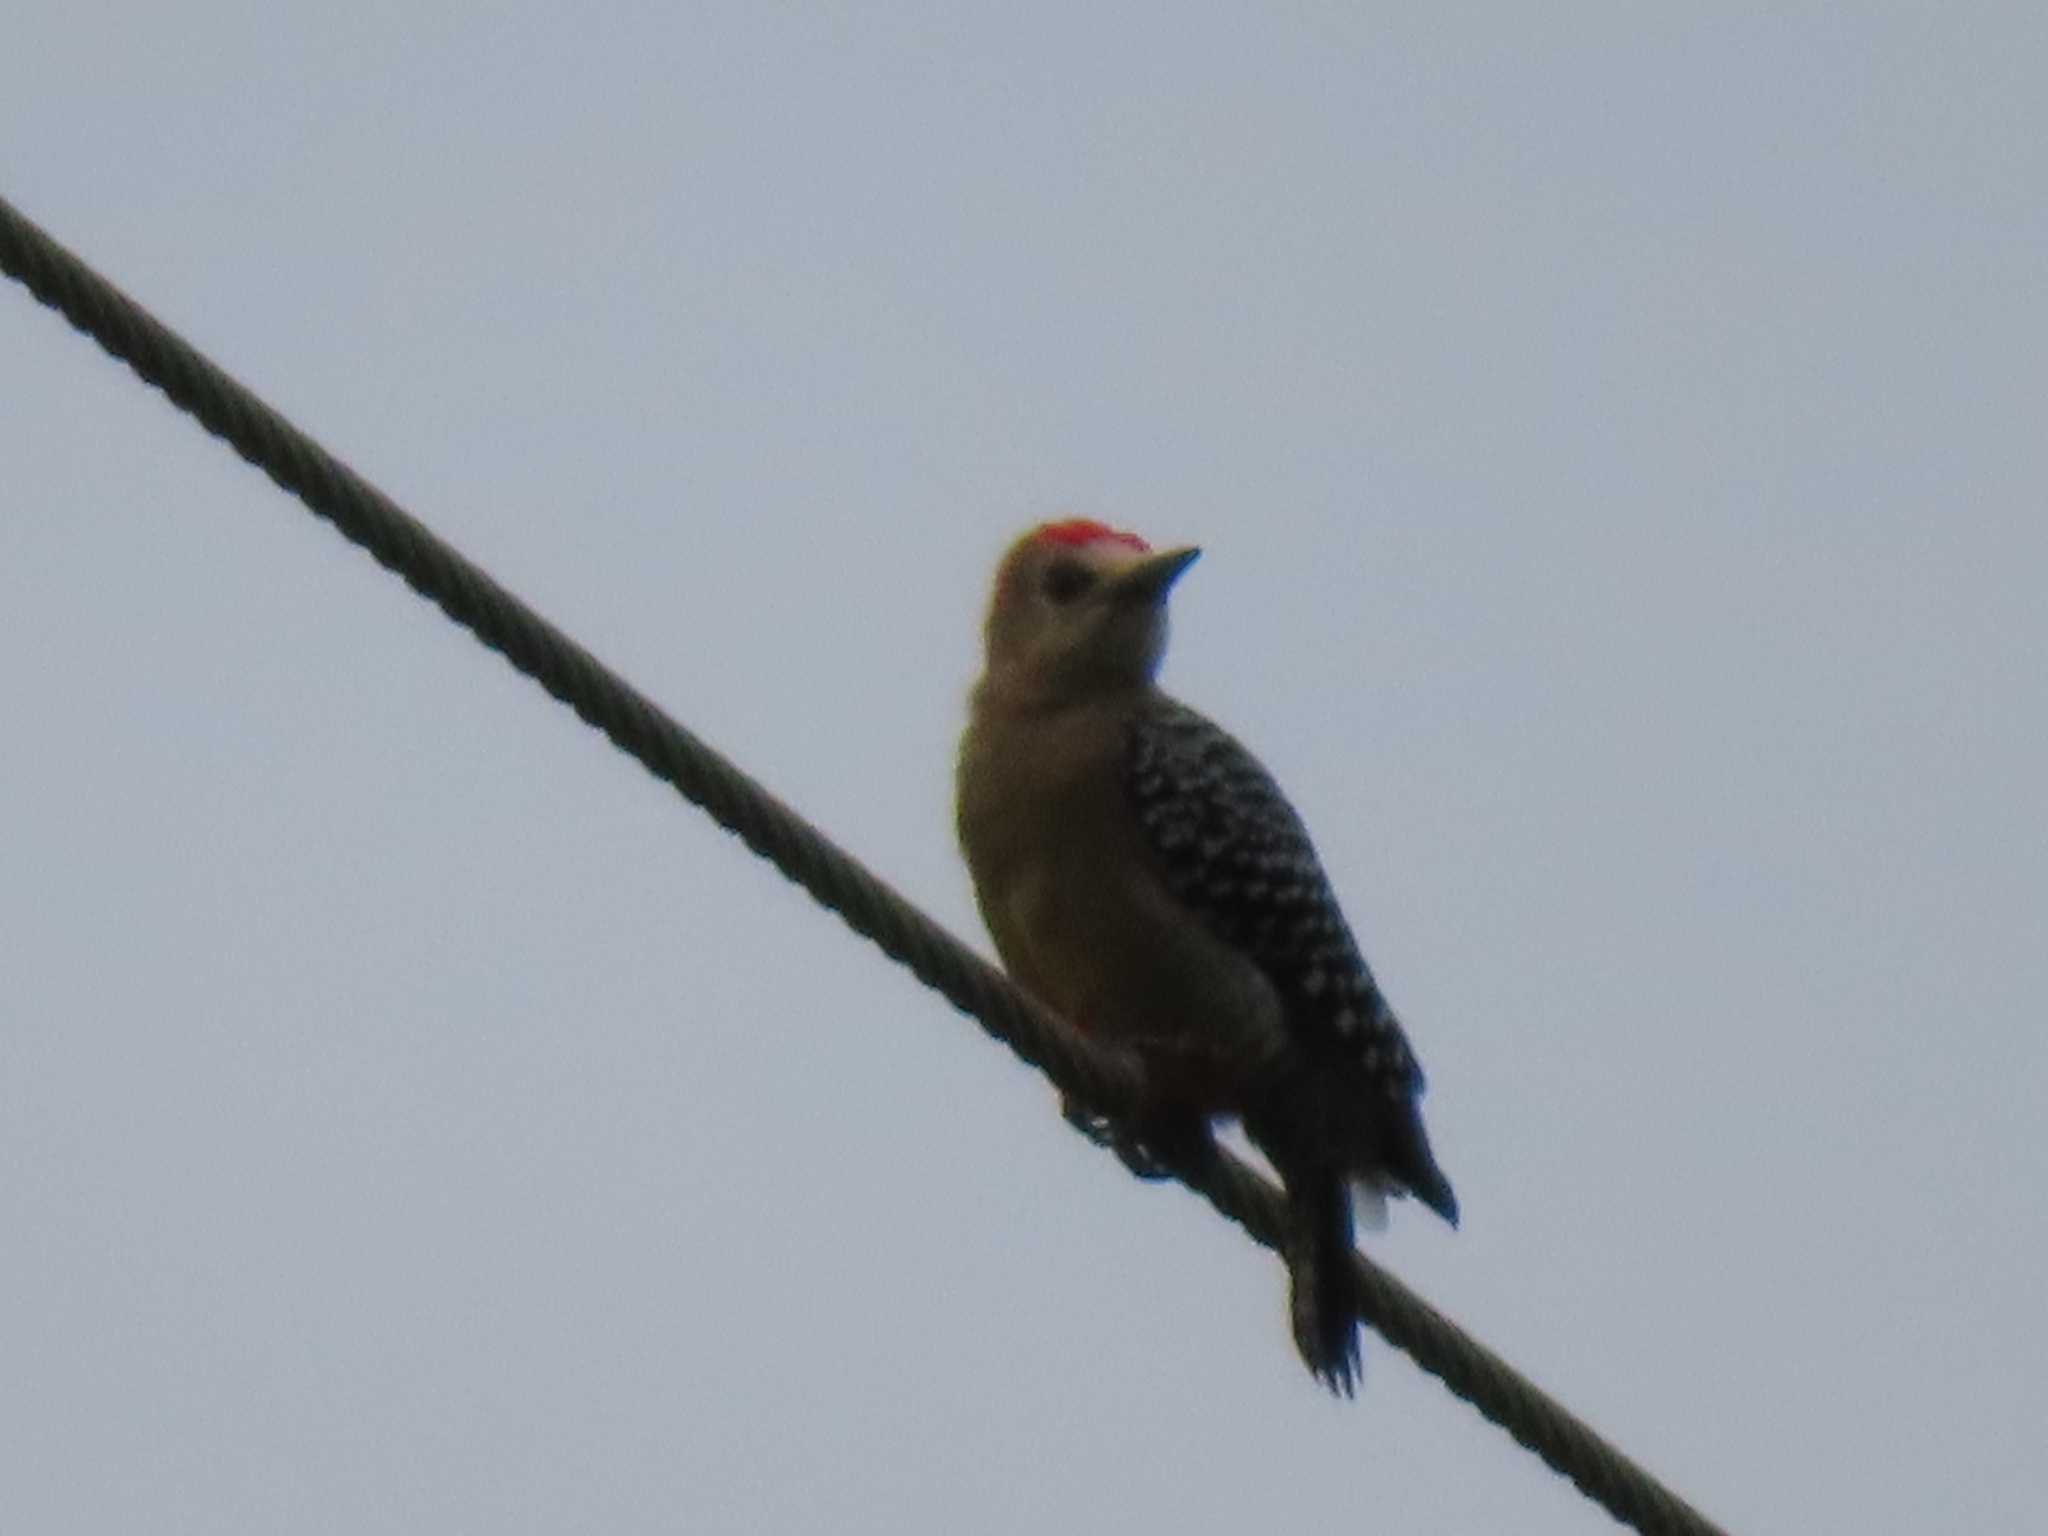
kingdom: Animalia
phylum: Chordata
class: Aves
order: Piciformes
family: Picidae
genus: Melanerpes
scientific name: Melanerpes rubricapillus
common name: Red-crowned woodpecker
